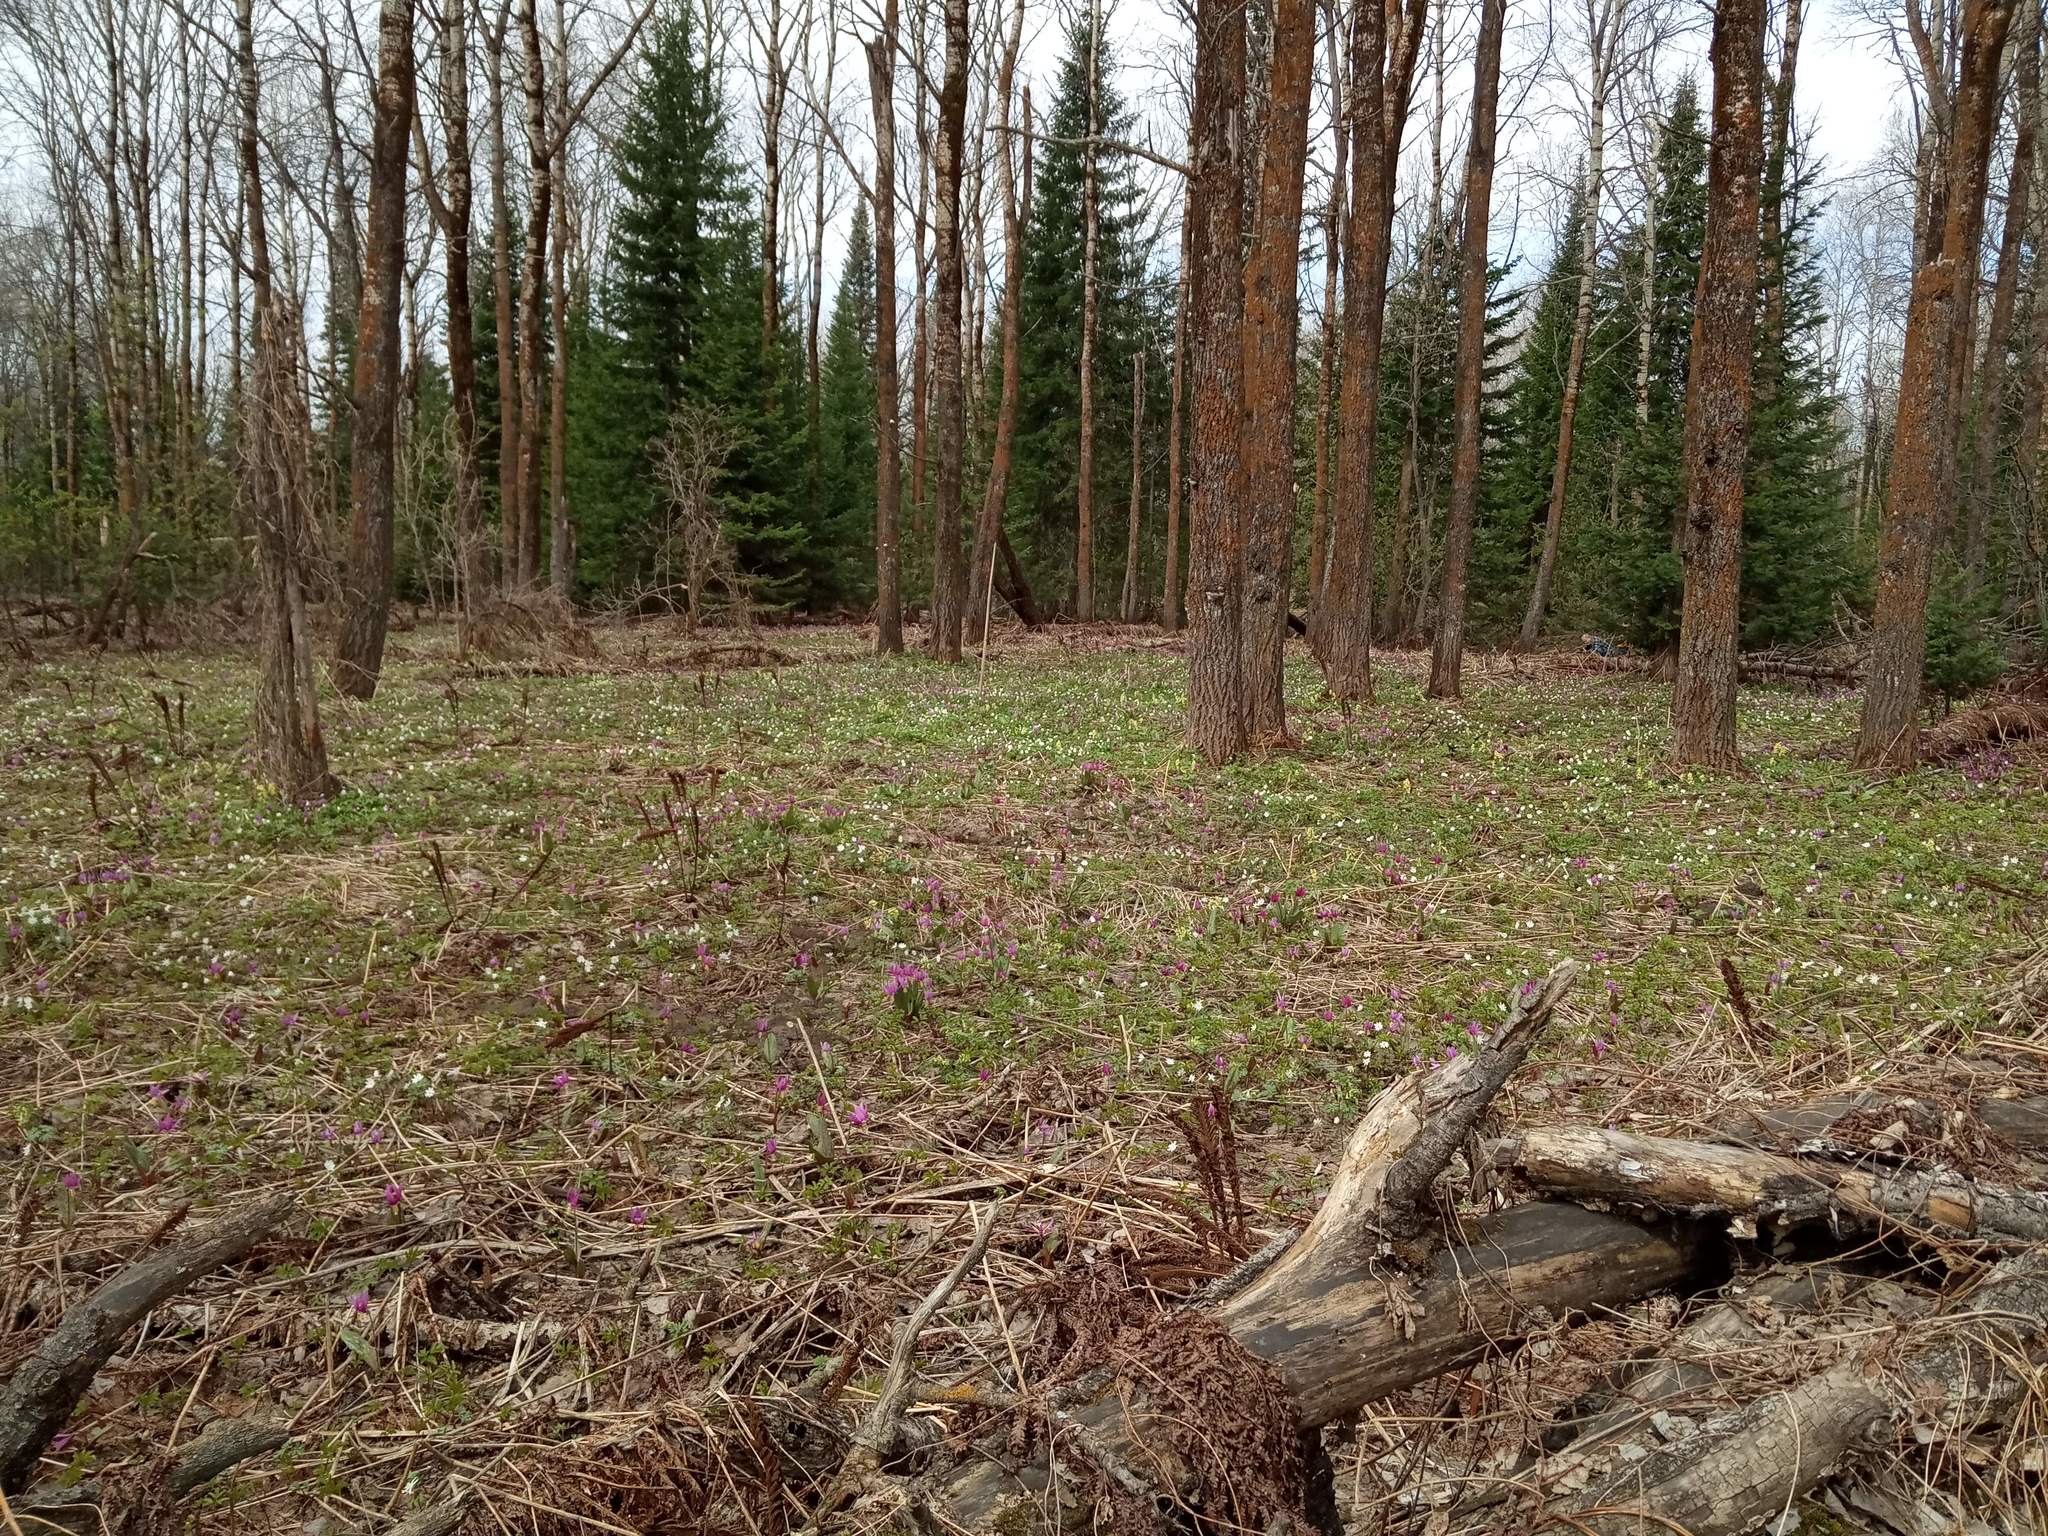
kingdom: Plantae
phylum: Tracheophyta
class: Liliopsida
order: Liliales
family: Liliaceae
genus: Erythronium
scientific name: Erythronium sibiricum
